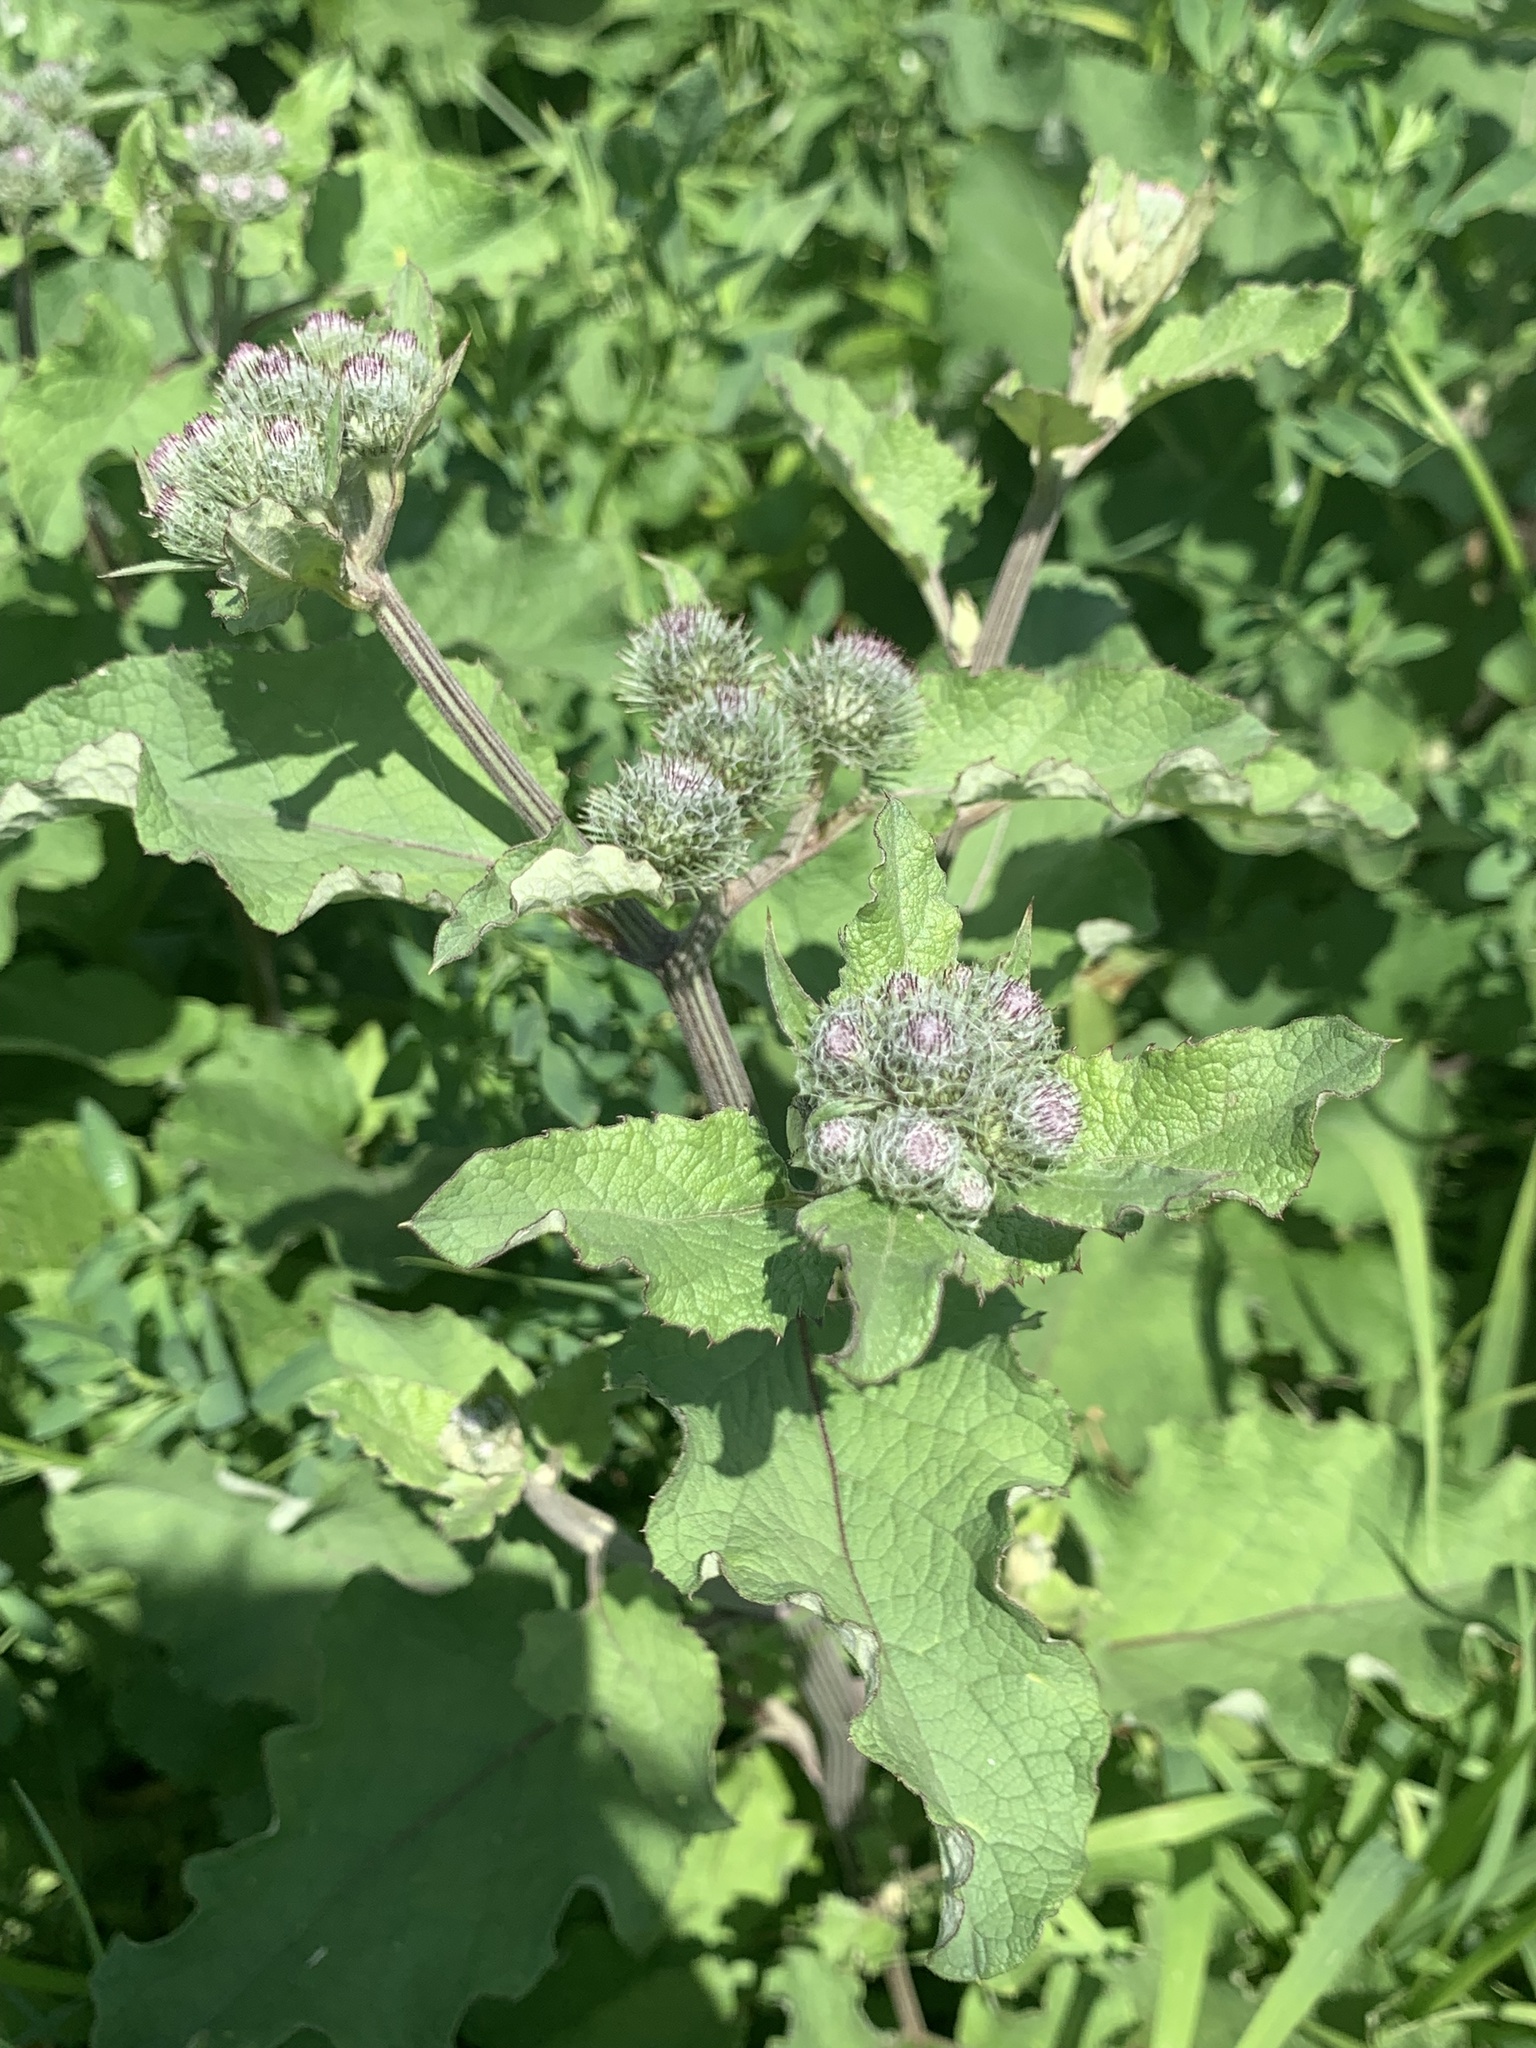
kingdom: Plantae
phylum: Tracheophyta
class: Magnoliopsida
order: Asterales
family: Asteraceae
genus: Arctium
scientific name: Arctium tomentosum
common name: Woolly burdock
